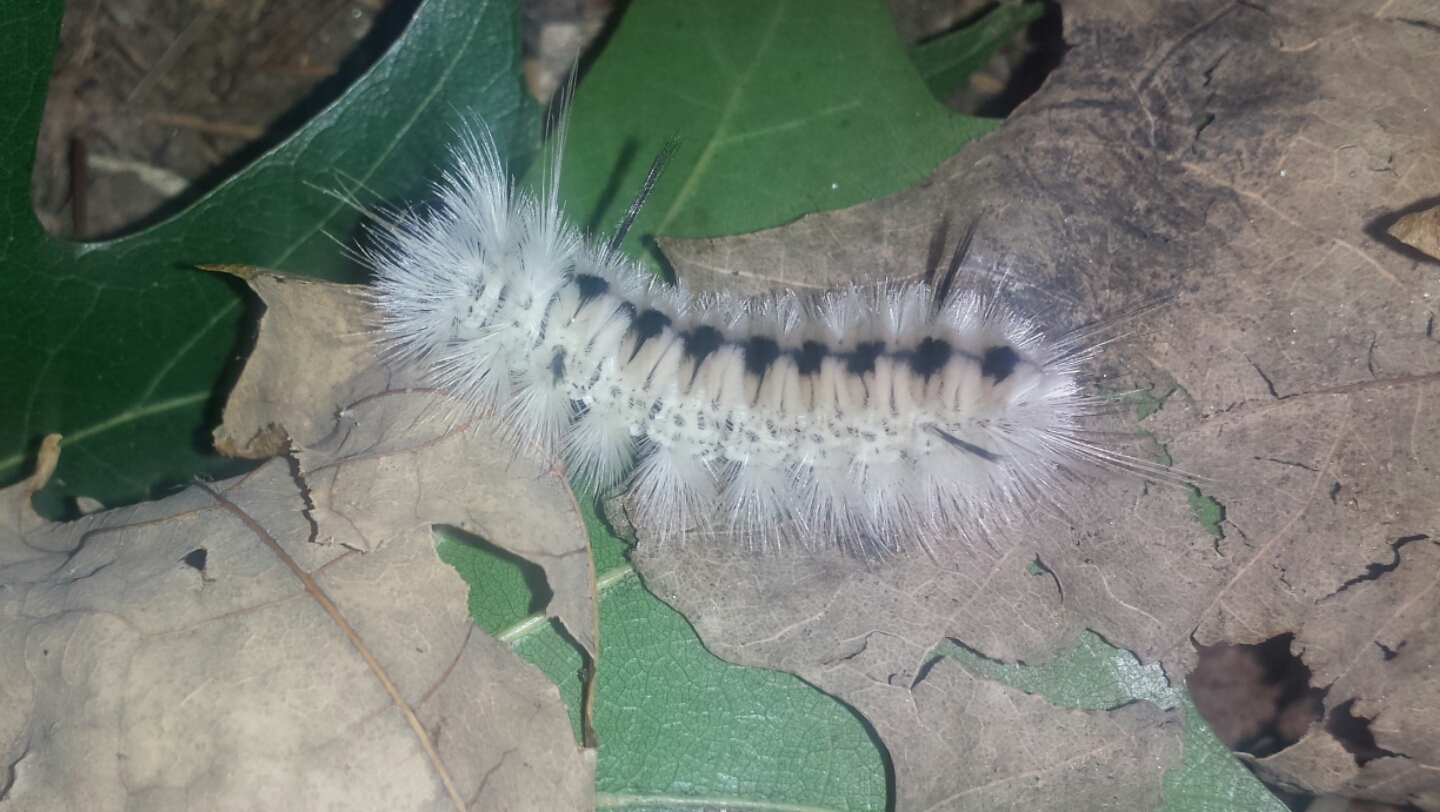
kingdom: Animalia
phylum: Arthropoda
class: Insecta
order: Lepidoptera
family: Erebidae
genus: Lophocampa
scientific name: Lophocampa caryae
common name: Hickory tussock moth
